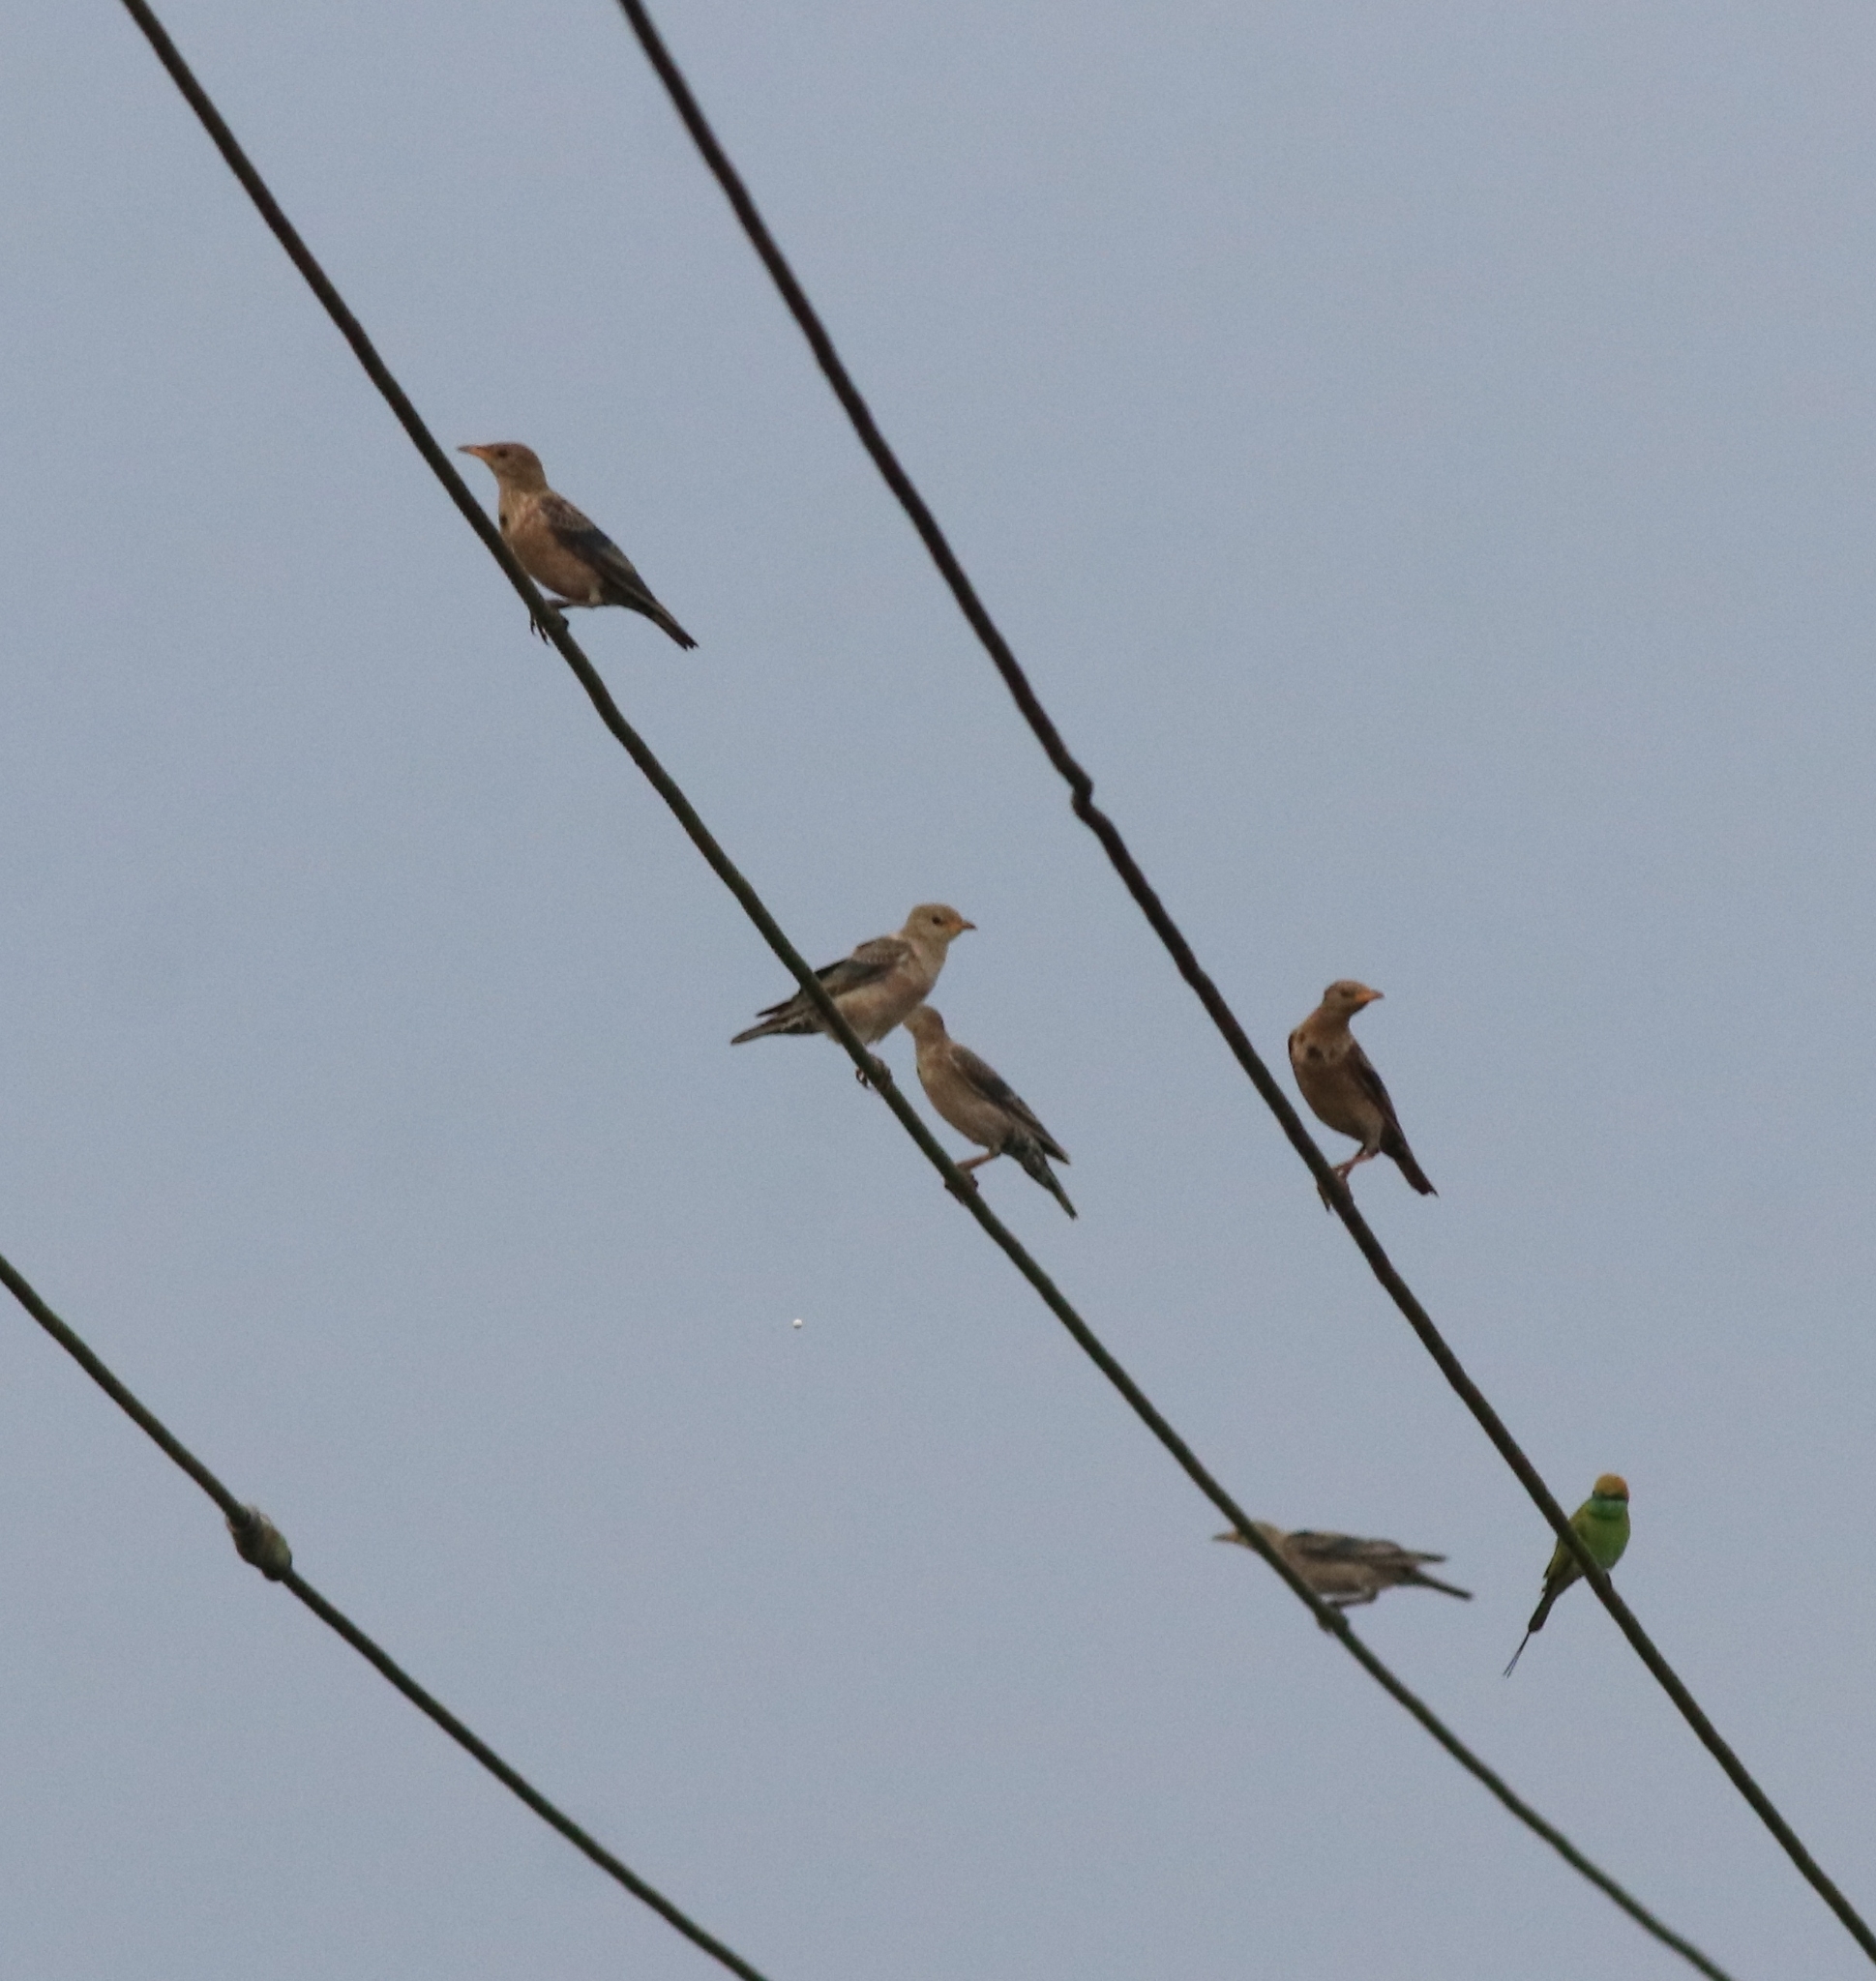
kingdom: Animalia
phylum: Chordata
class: Aves
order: Passeriformes
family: Sturnidae
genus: Pastor
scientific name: Pastor roseus
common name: Rosy starling
